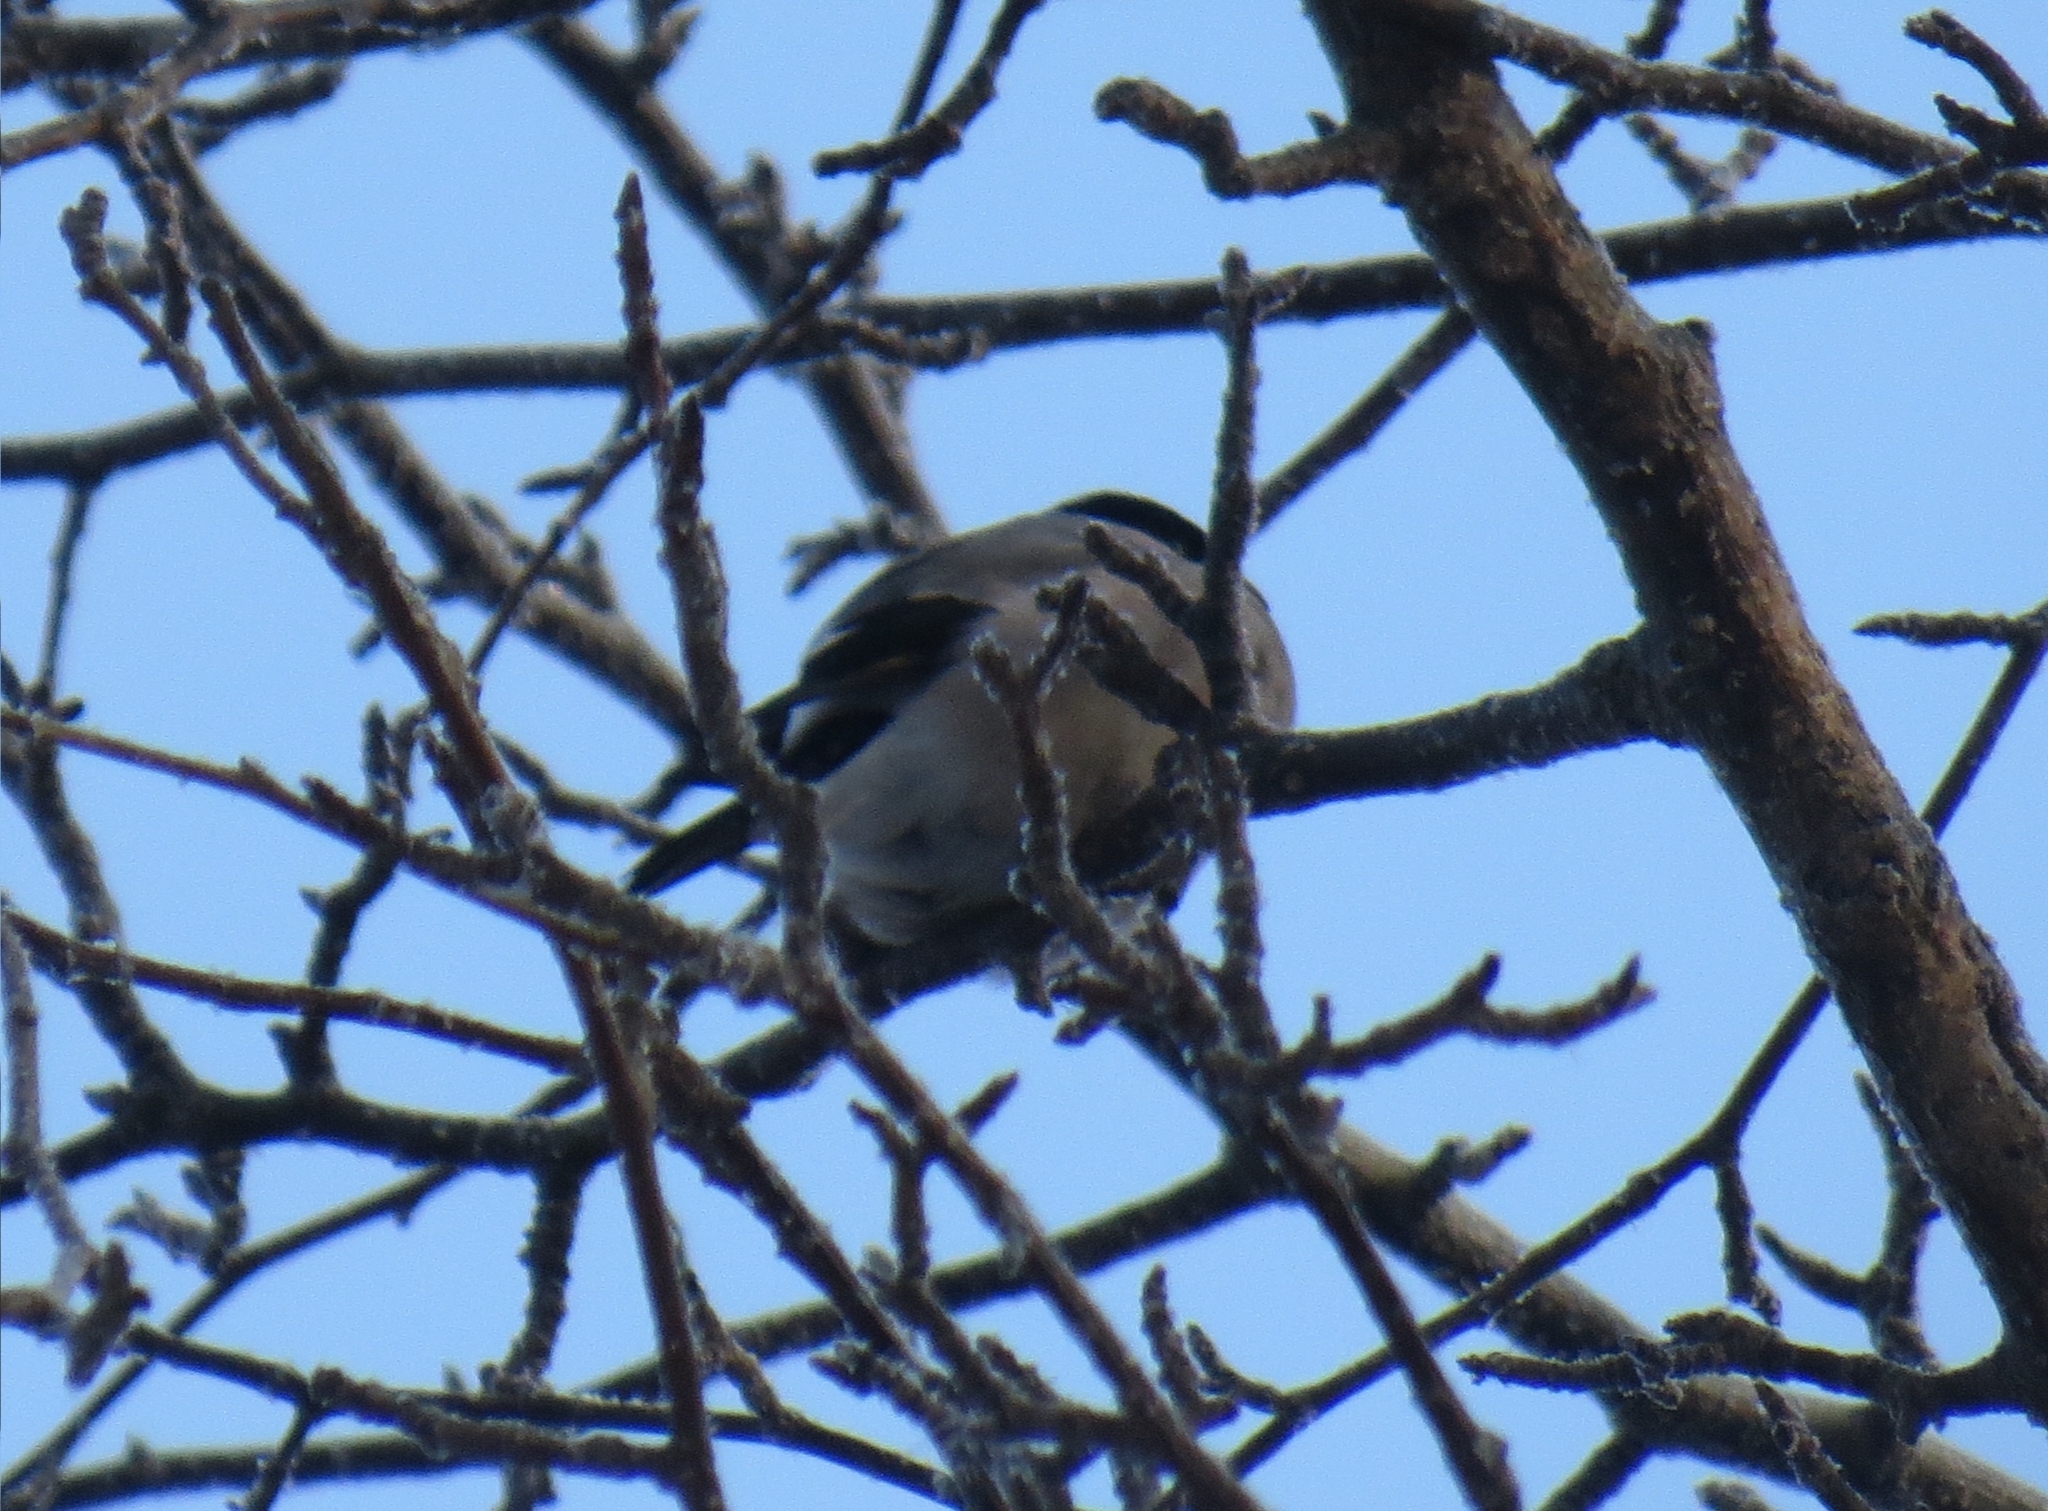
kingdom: Animalia
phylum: Chordata
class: Aves
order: Passeriformes
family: Fringillidae
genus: Pyrrhula
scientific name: Pyrrhula pyrrhula
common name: Eurasian bullfinch
